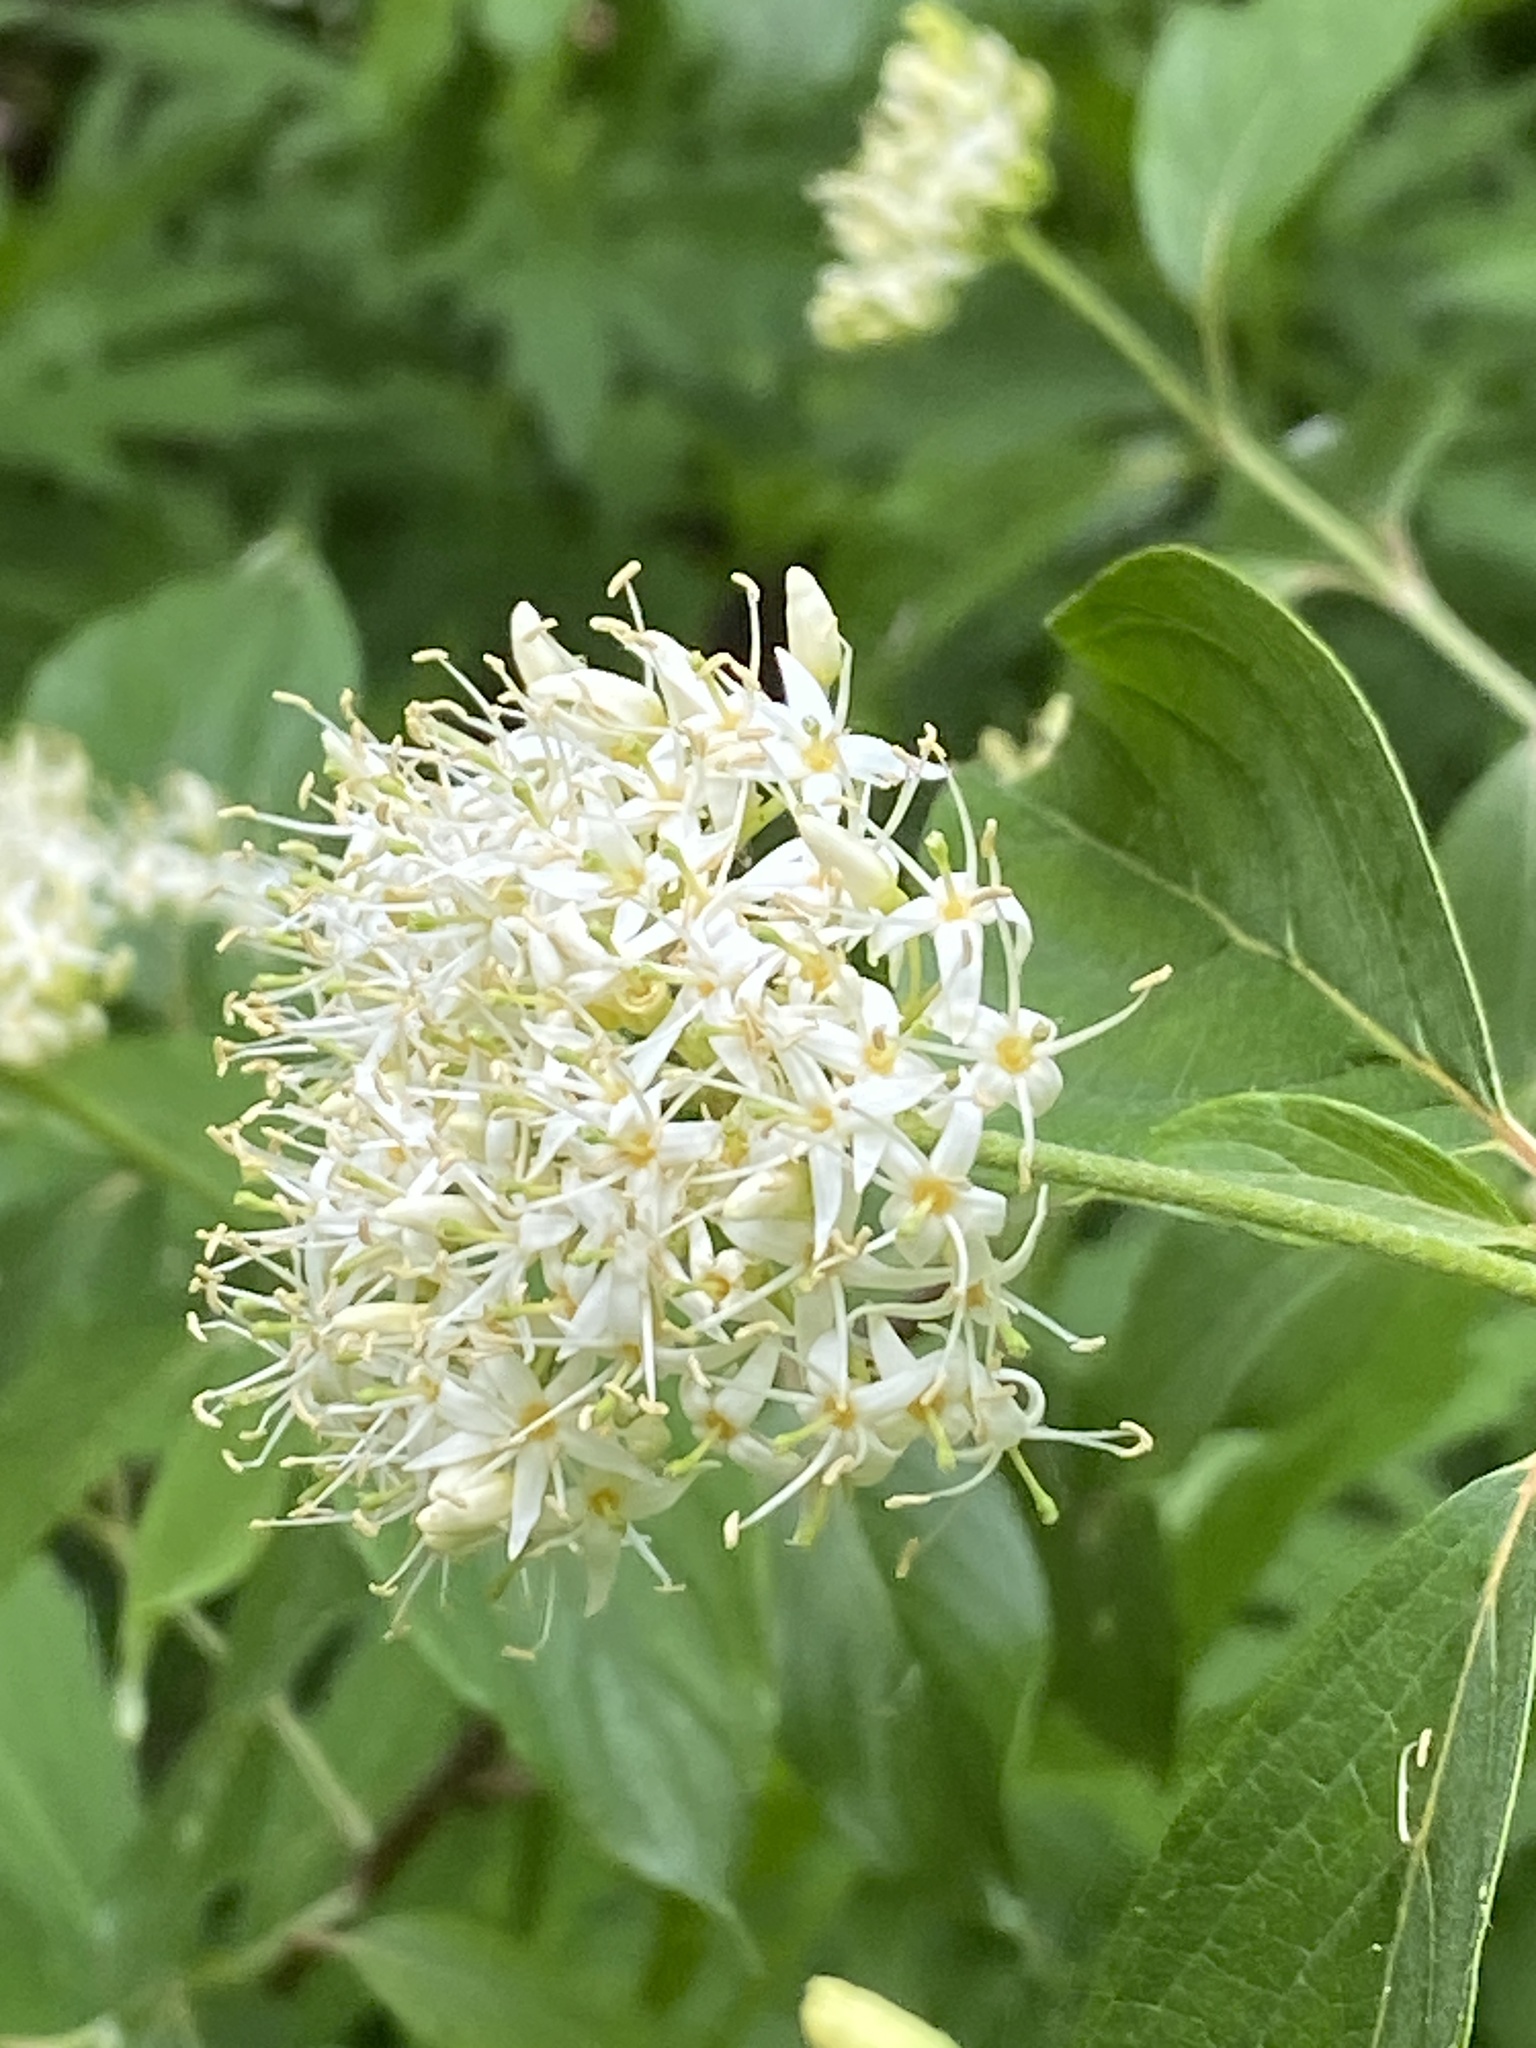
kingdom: Plantae
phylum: Tracheophyta
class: Magnoliopsida
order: Cornales
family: Cornaceae
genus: Cornus
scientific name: Cornus amomum
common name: Silky dogwood
